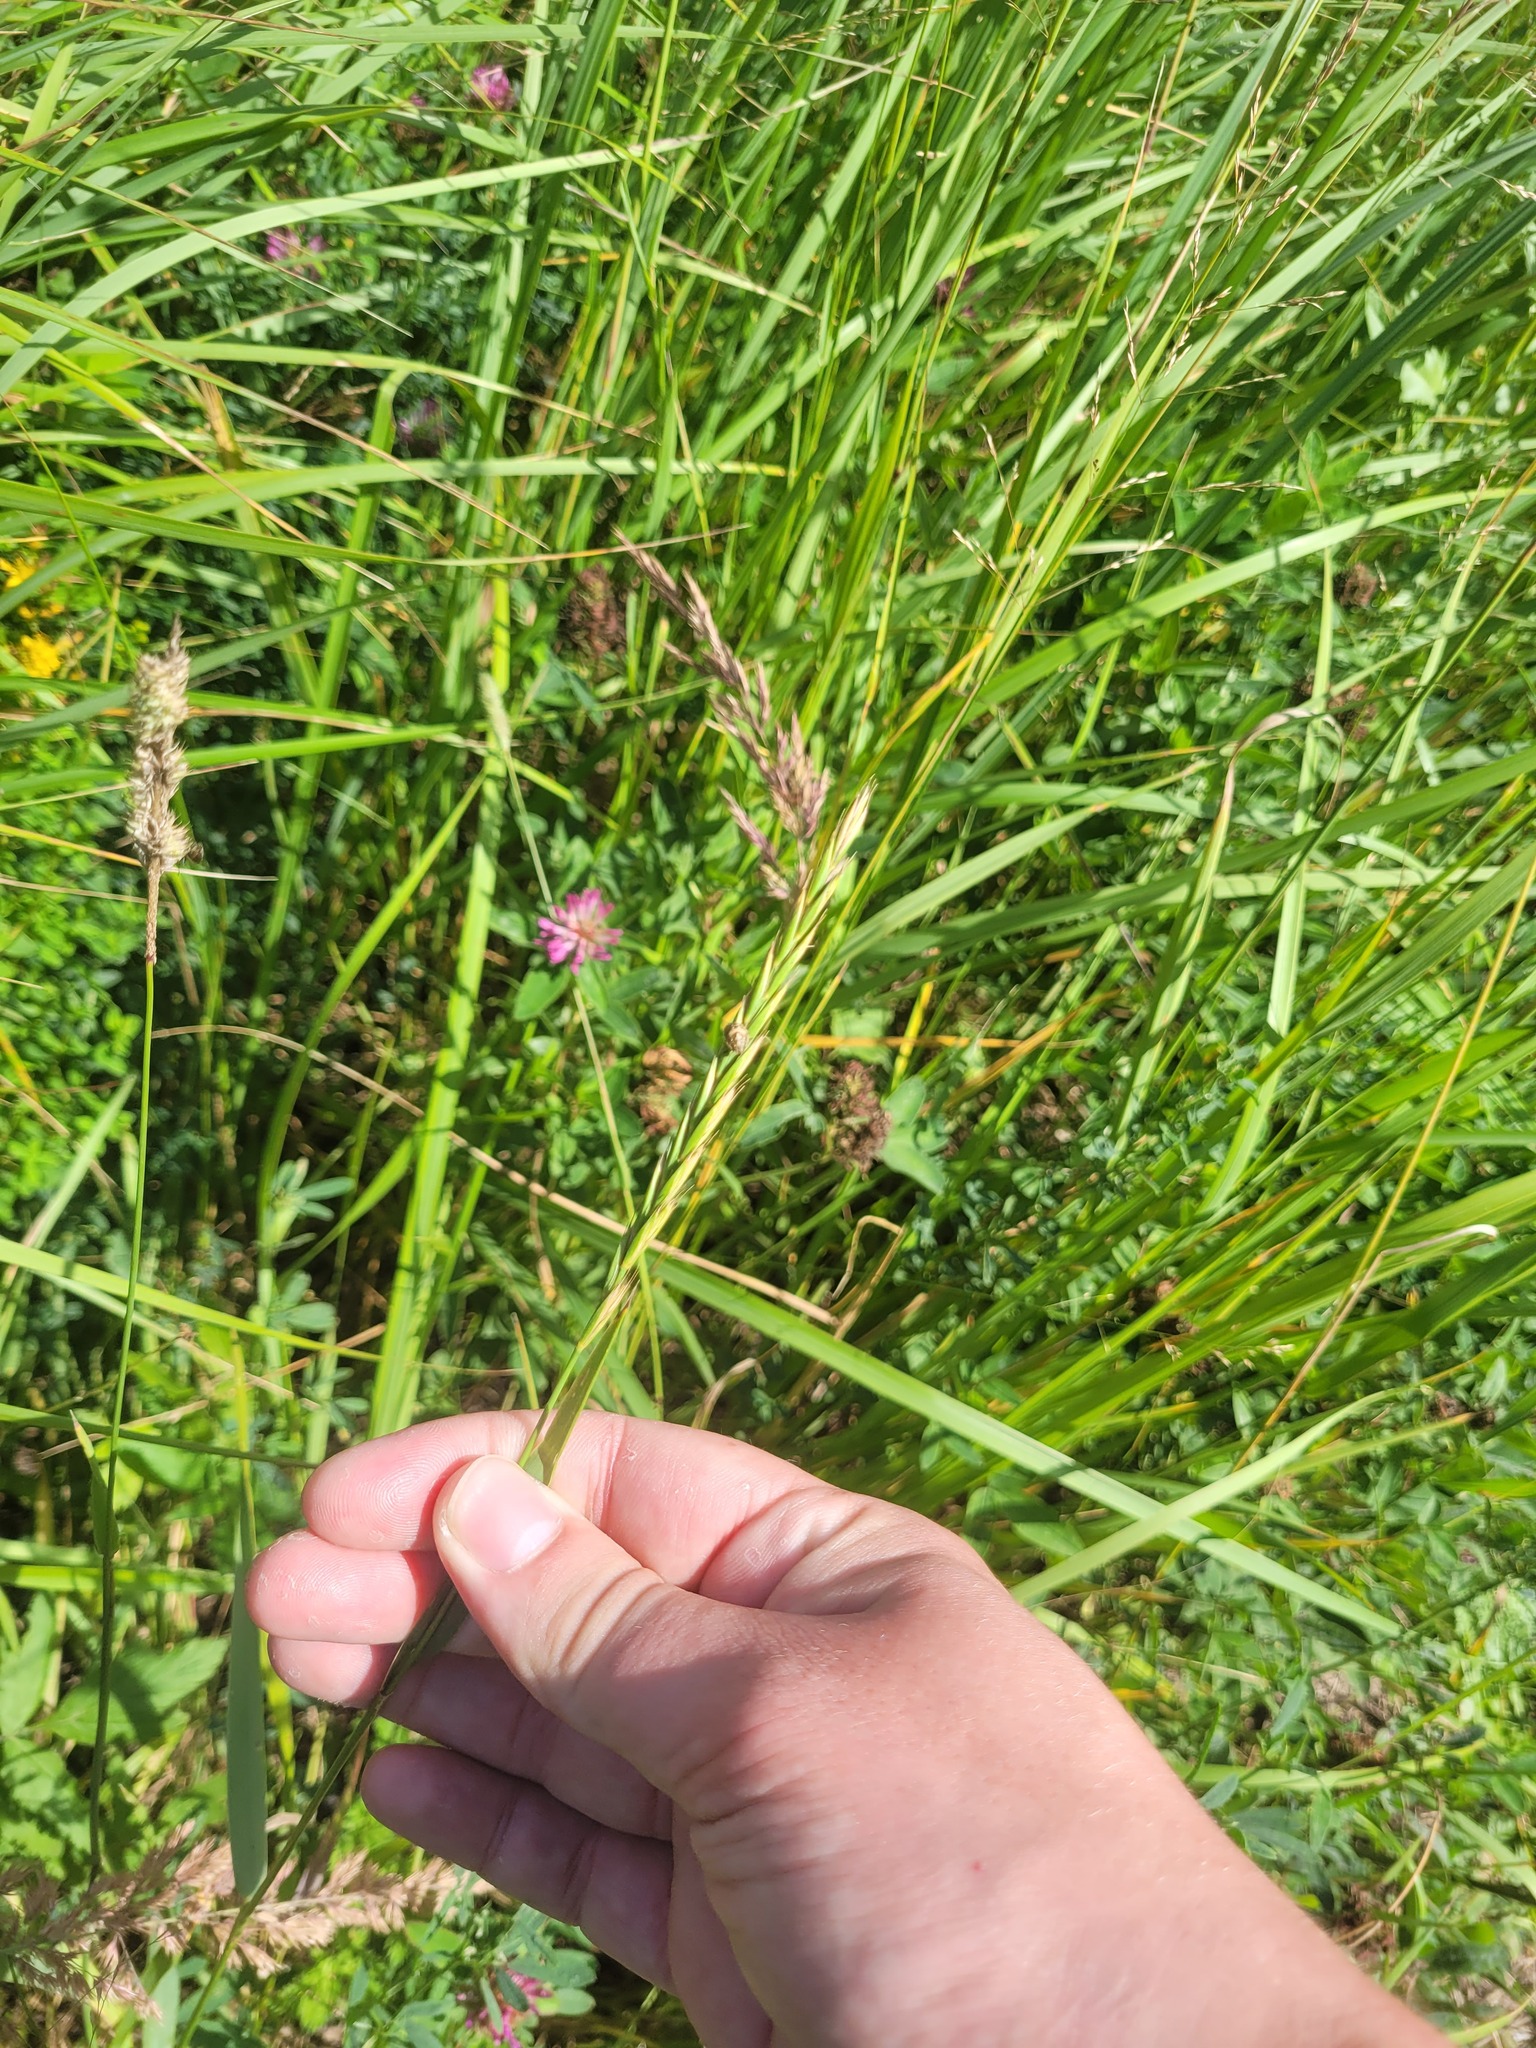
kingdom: Plantae
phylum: Tracheophyta
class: Liliopsida
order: Poales
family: Poaceae
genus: Elymus
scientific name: Elymus repens
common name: Quackgrass
